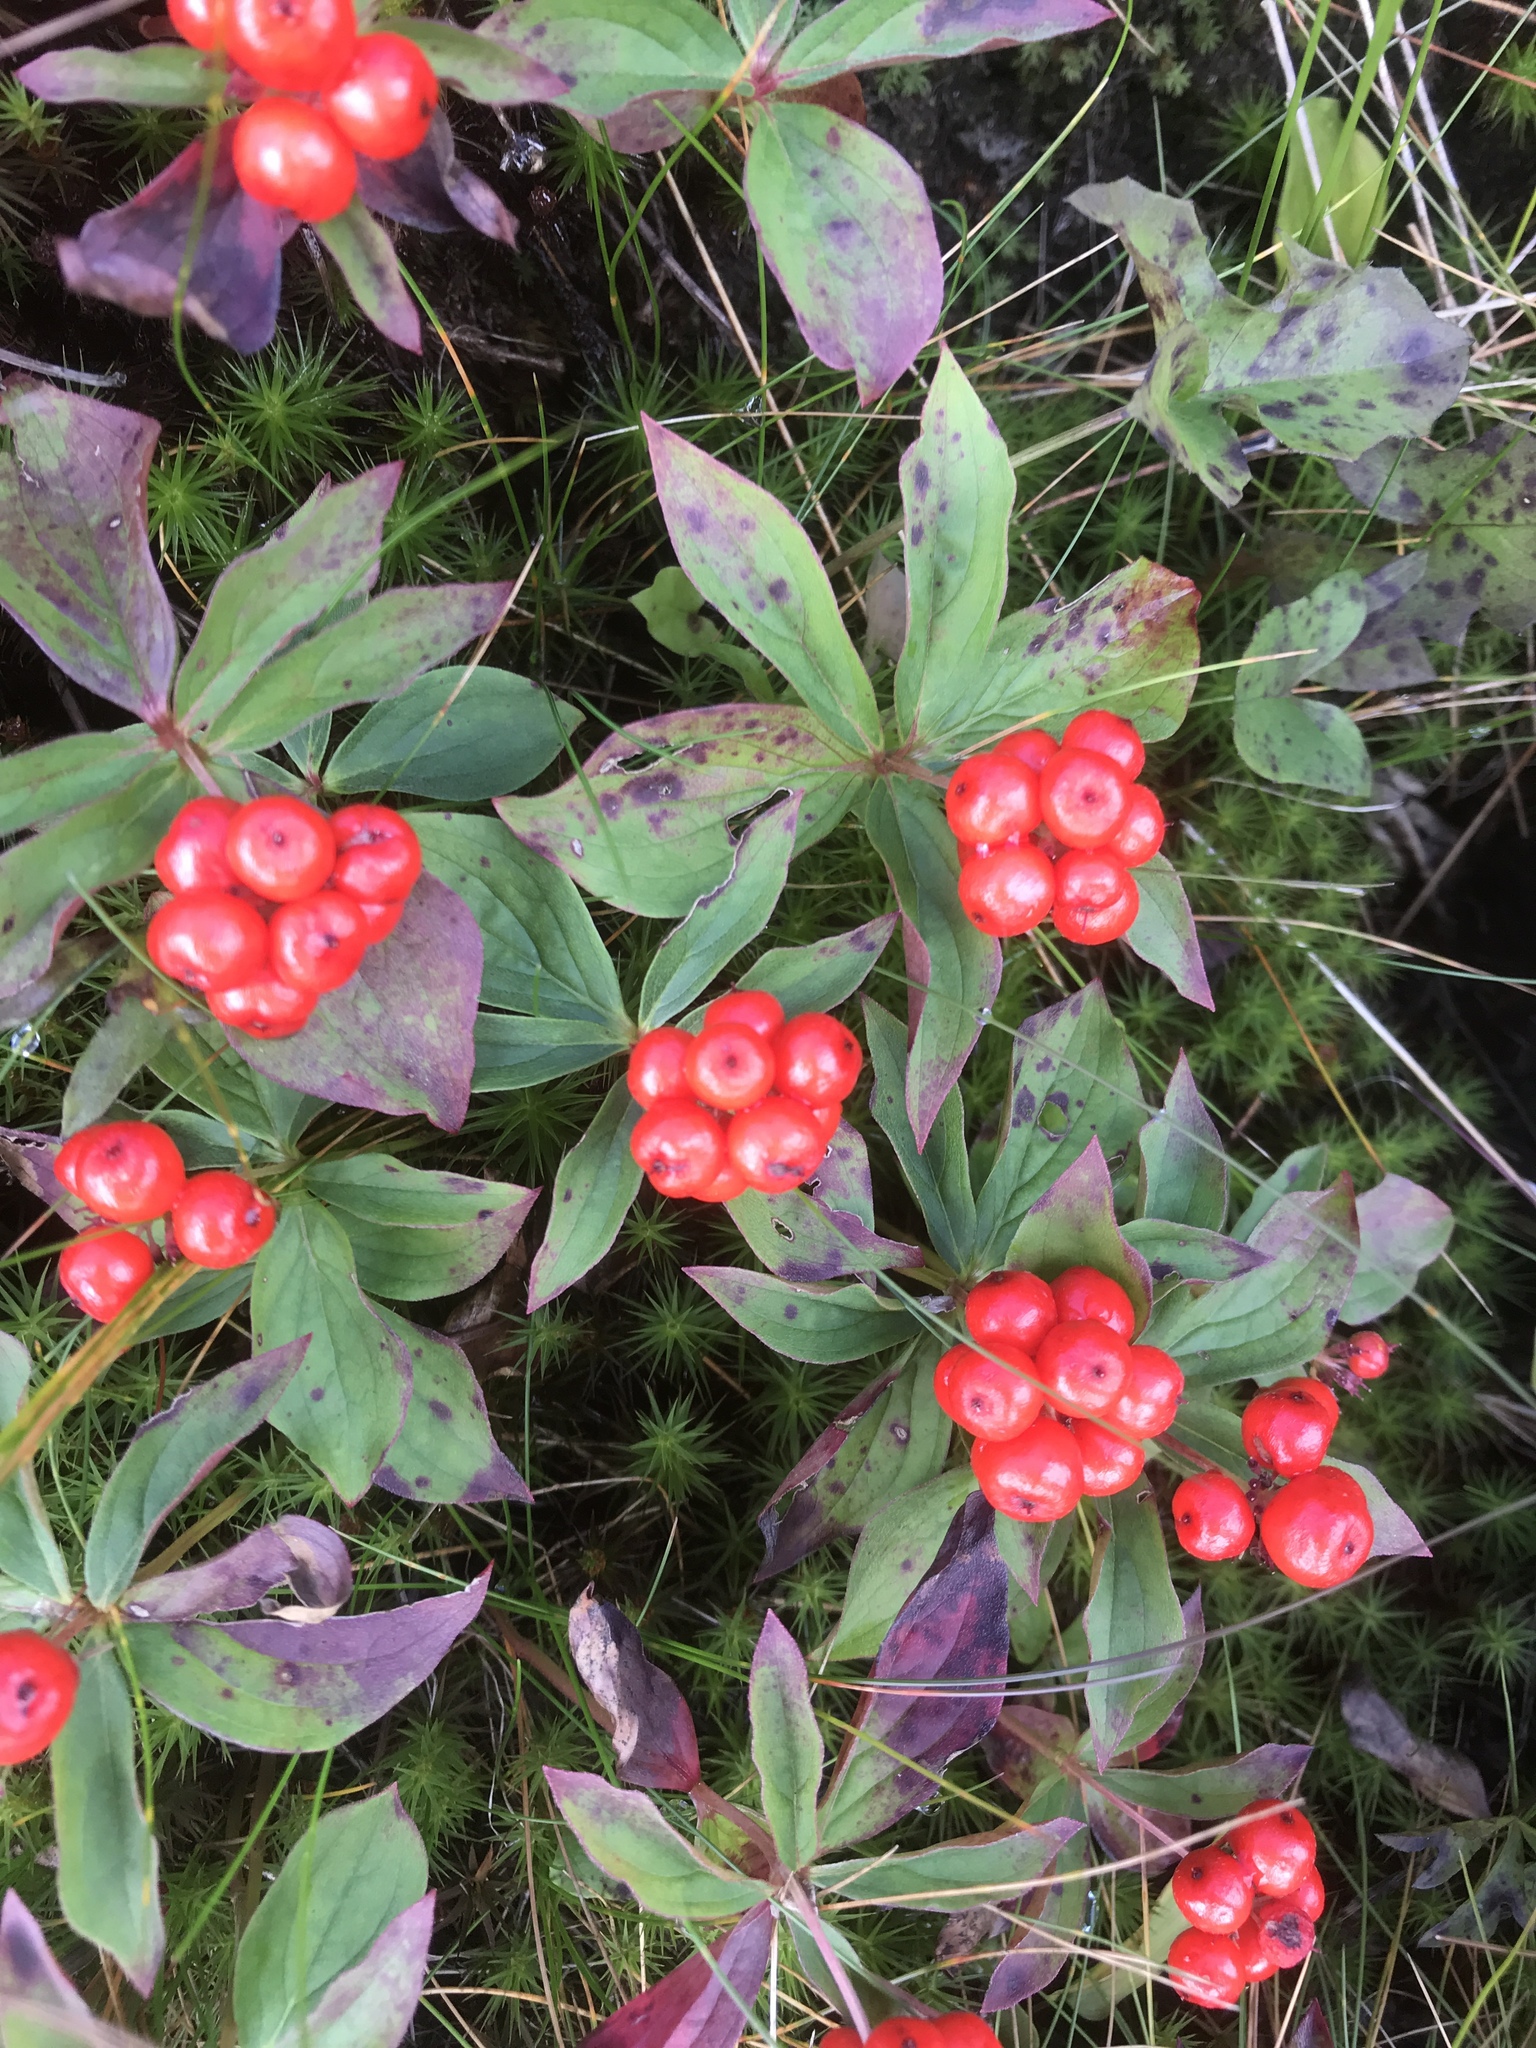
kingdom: Plantae
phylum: Tracheophyta
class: Magnoliopsida
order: Cornales
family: Cornaceae
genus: Cornus
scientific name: Cornus canadensis
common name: Creeping dogwood
